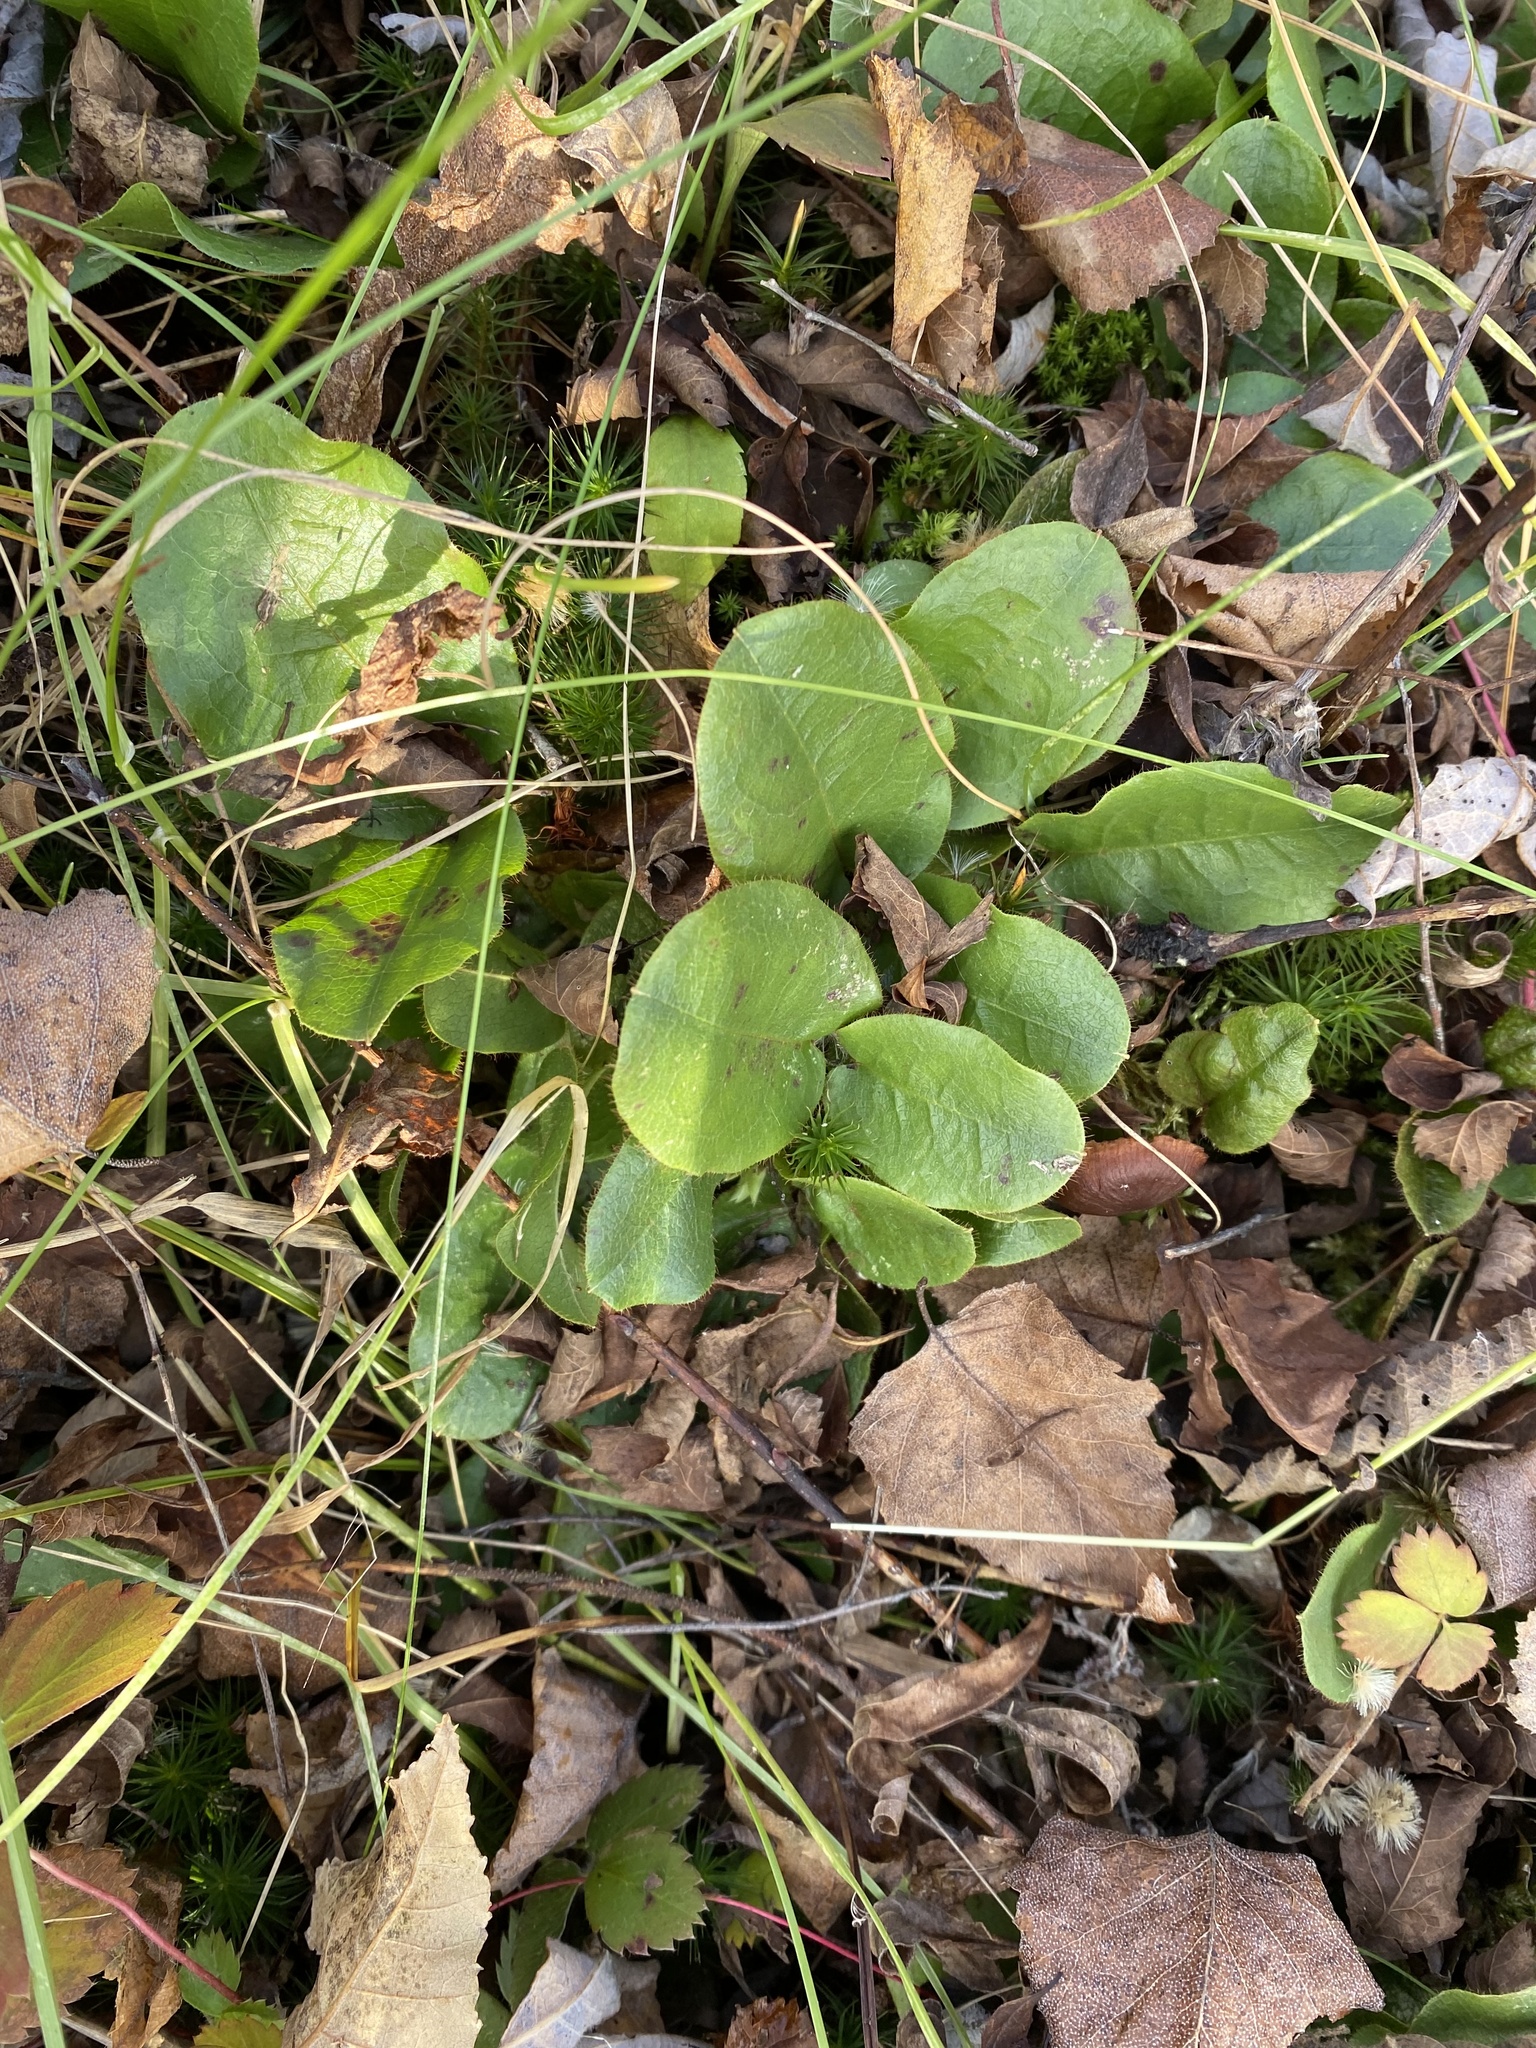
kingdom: Plantae
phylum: Tracheophyta
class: Magnoliopsida
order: Ericales
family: Ericaceae
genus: Epigaea
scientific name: Epigaea repens
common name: Gravelroot
